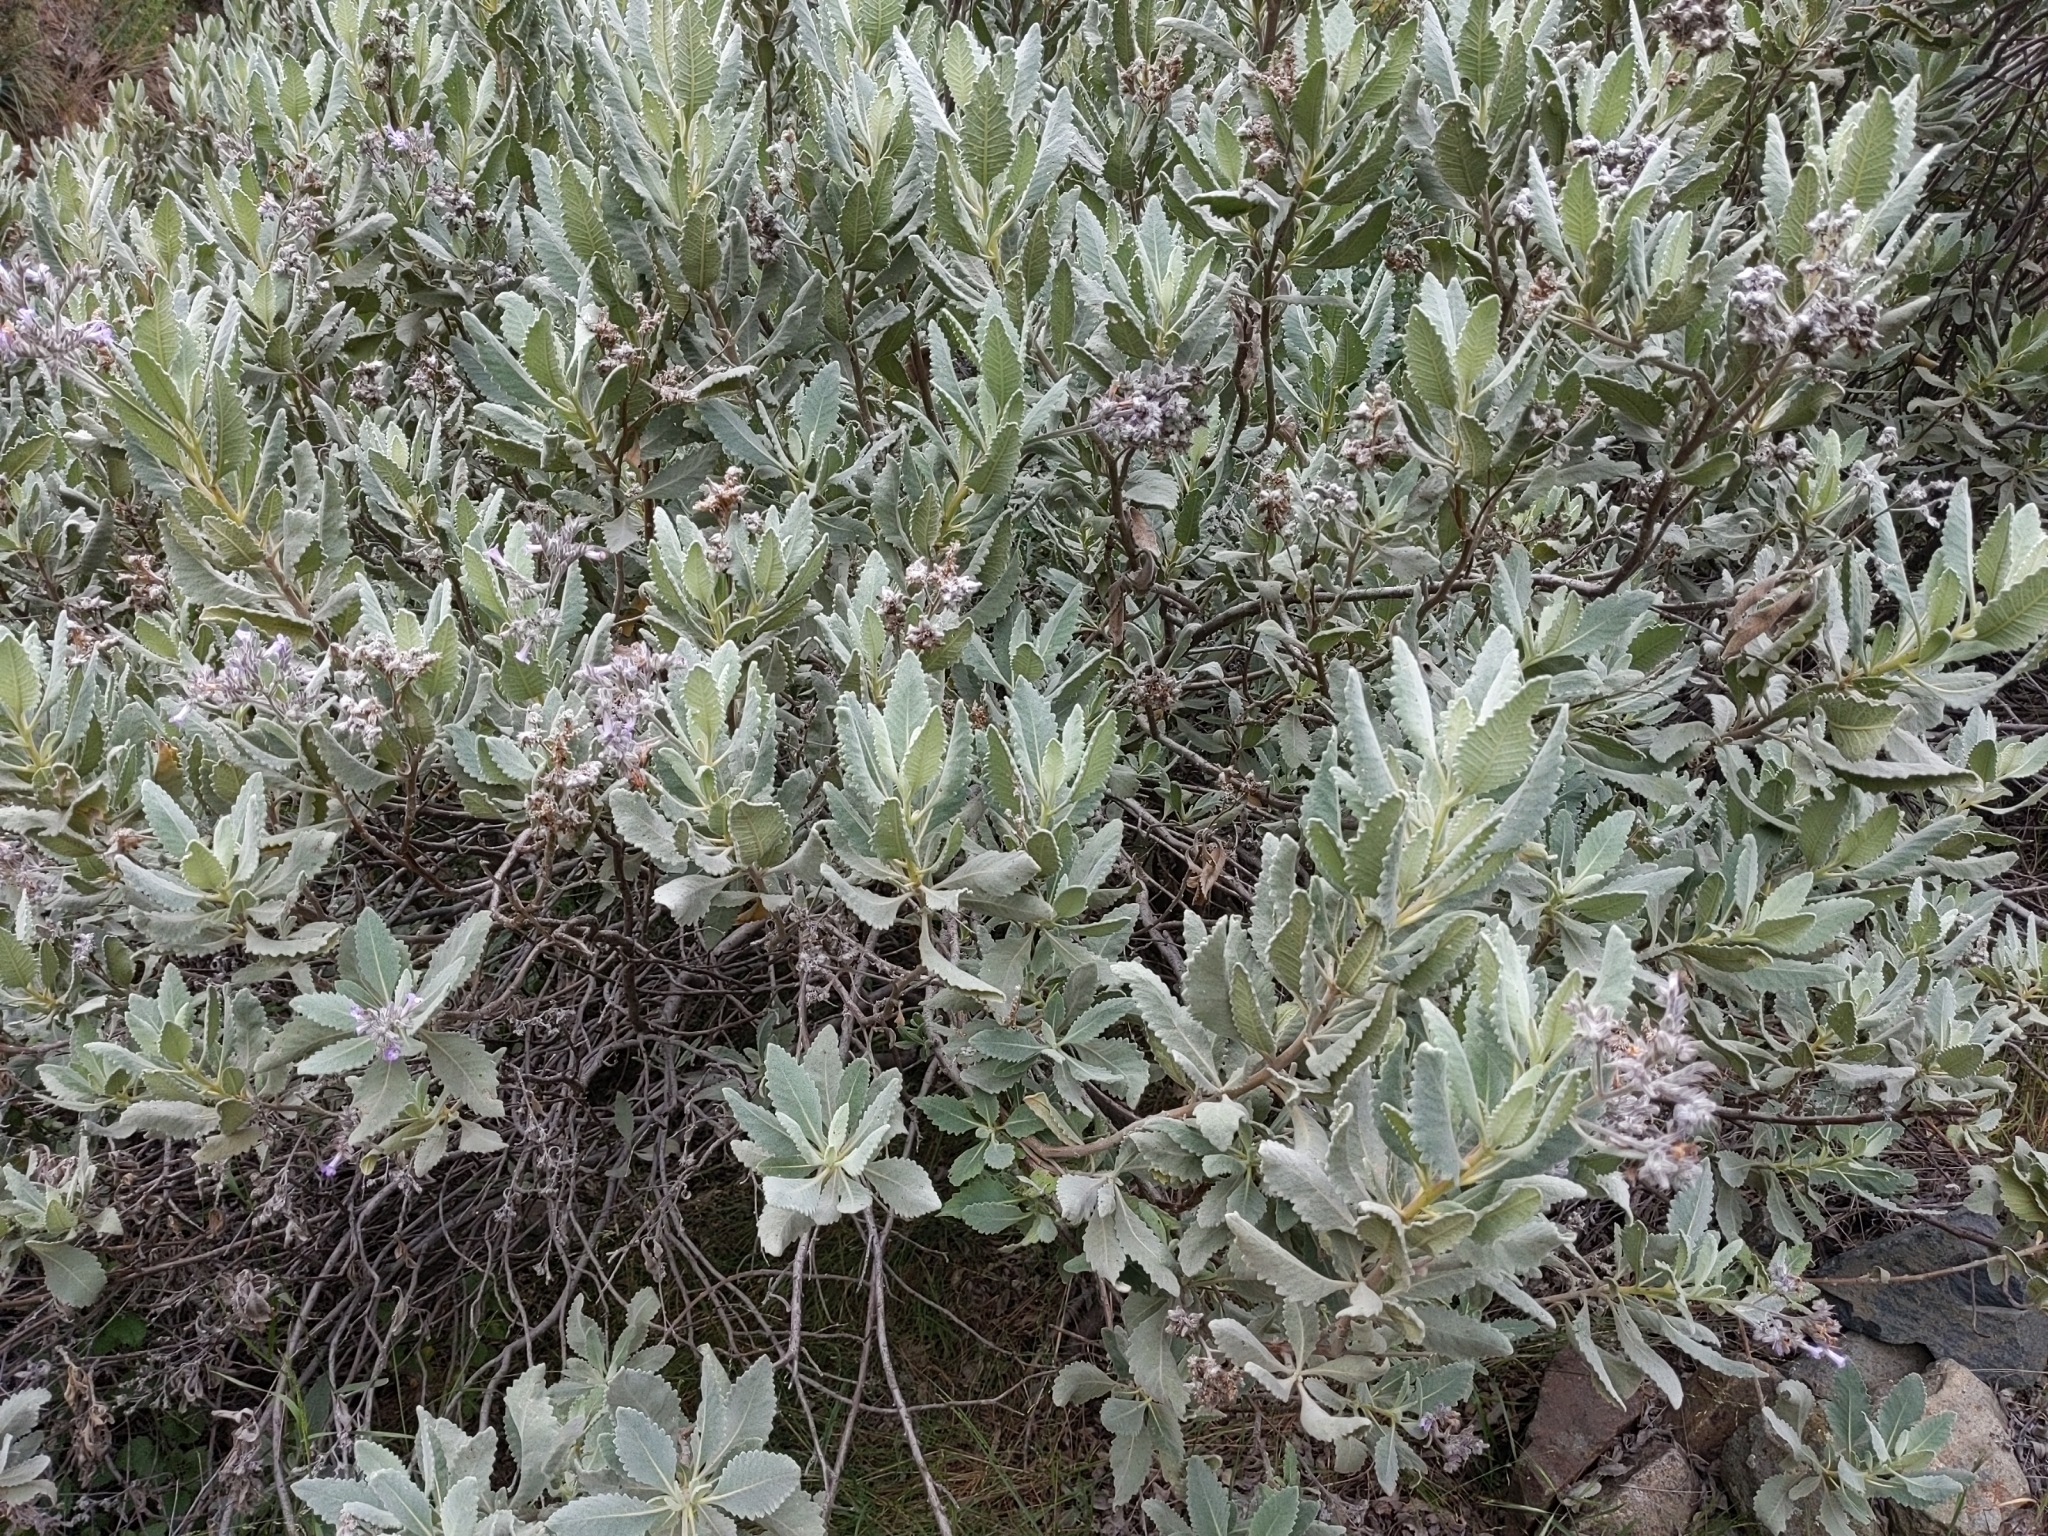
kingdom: Plantae
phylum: Tracheophyta
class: Magnoliopsida
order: Boraginales
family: Namaceae
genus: Eriodictyon
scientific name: Eriodictyon crassifolium
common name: Thick-leaf yerba-santa
